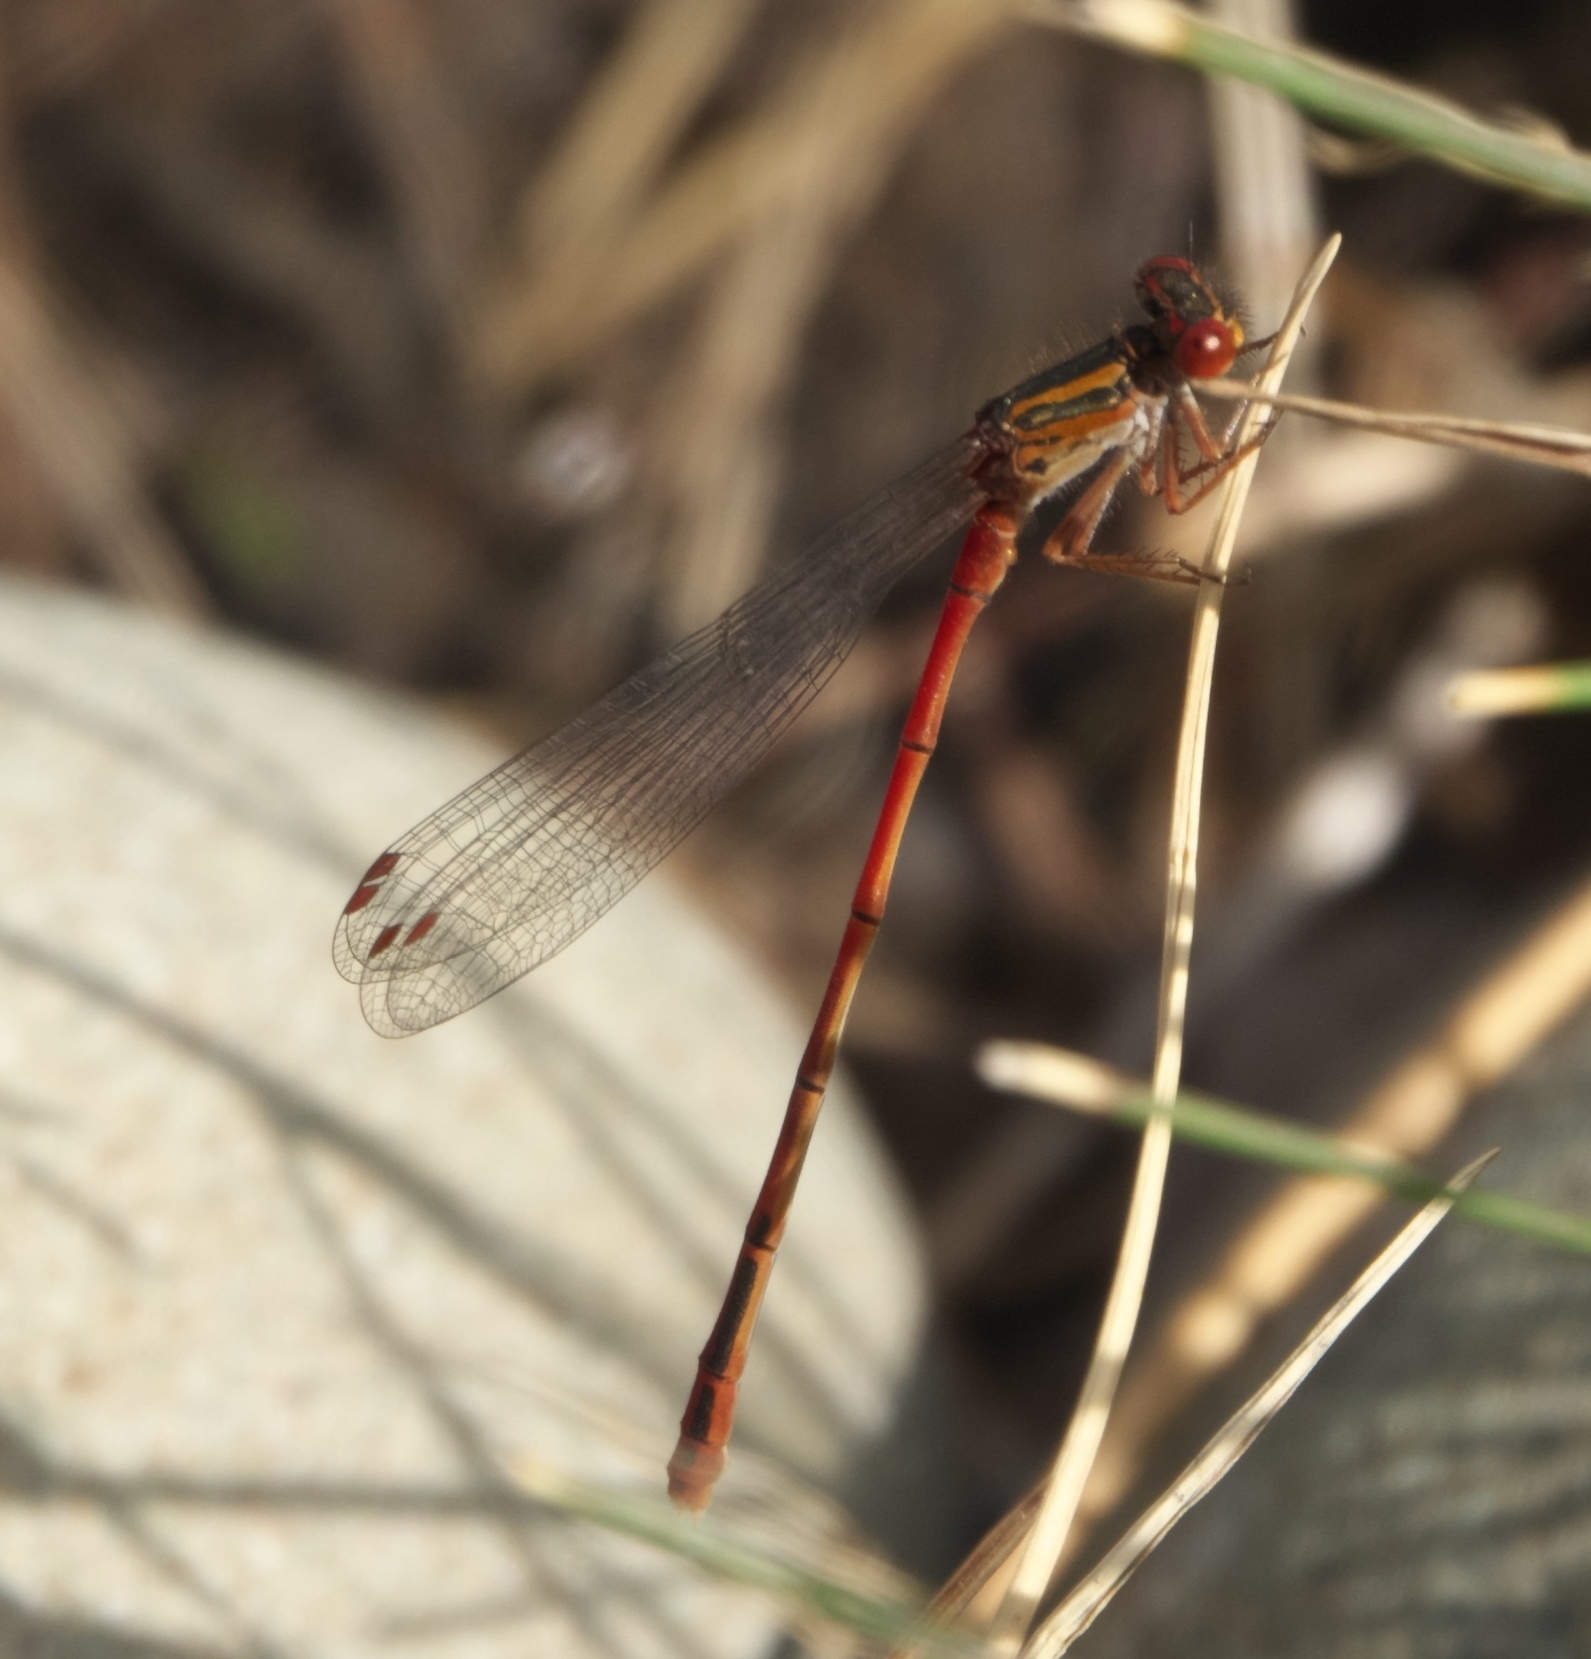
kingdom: Animalia
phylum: Arthropoda
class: Insecta
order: Odonata
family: Coenagrionidae
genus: Xanthocnemis
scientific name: Xanthocnemis zealandica
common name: Common redcoat damselfly
